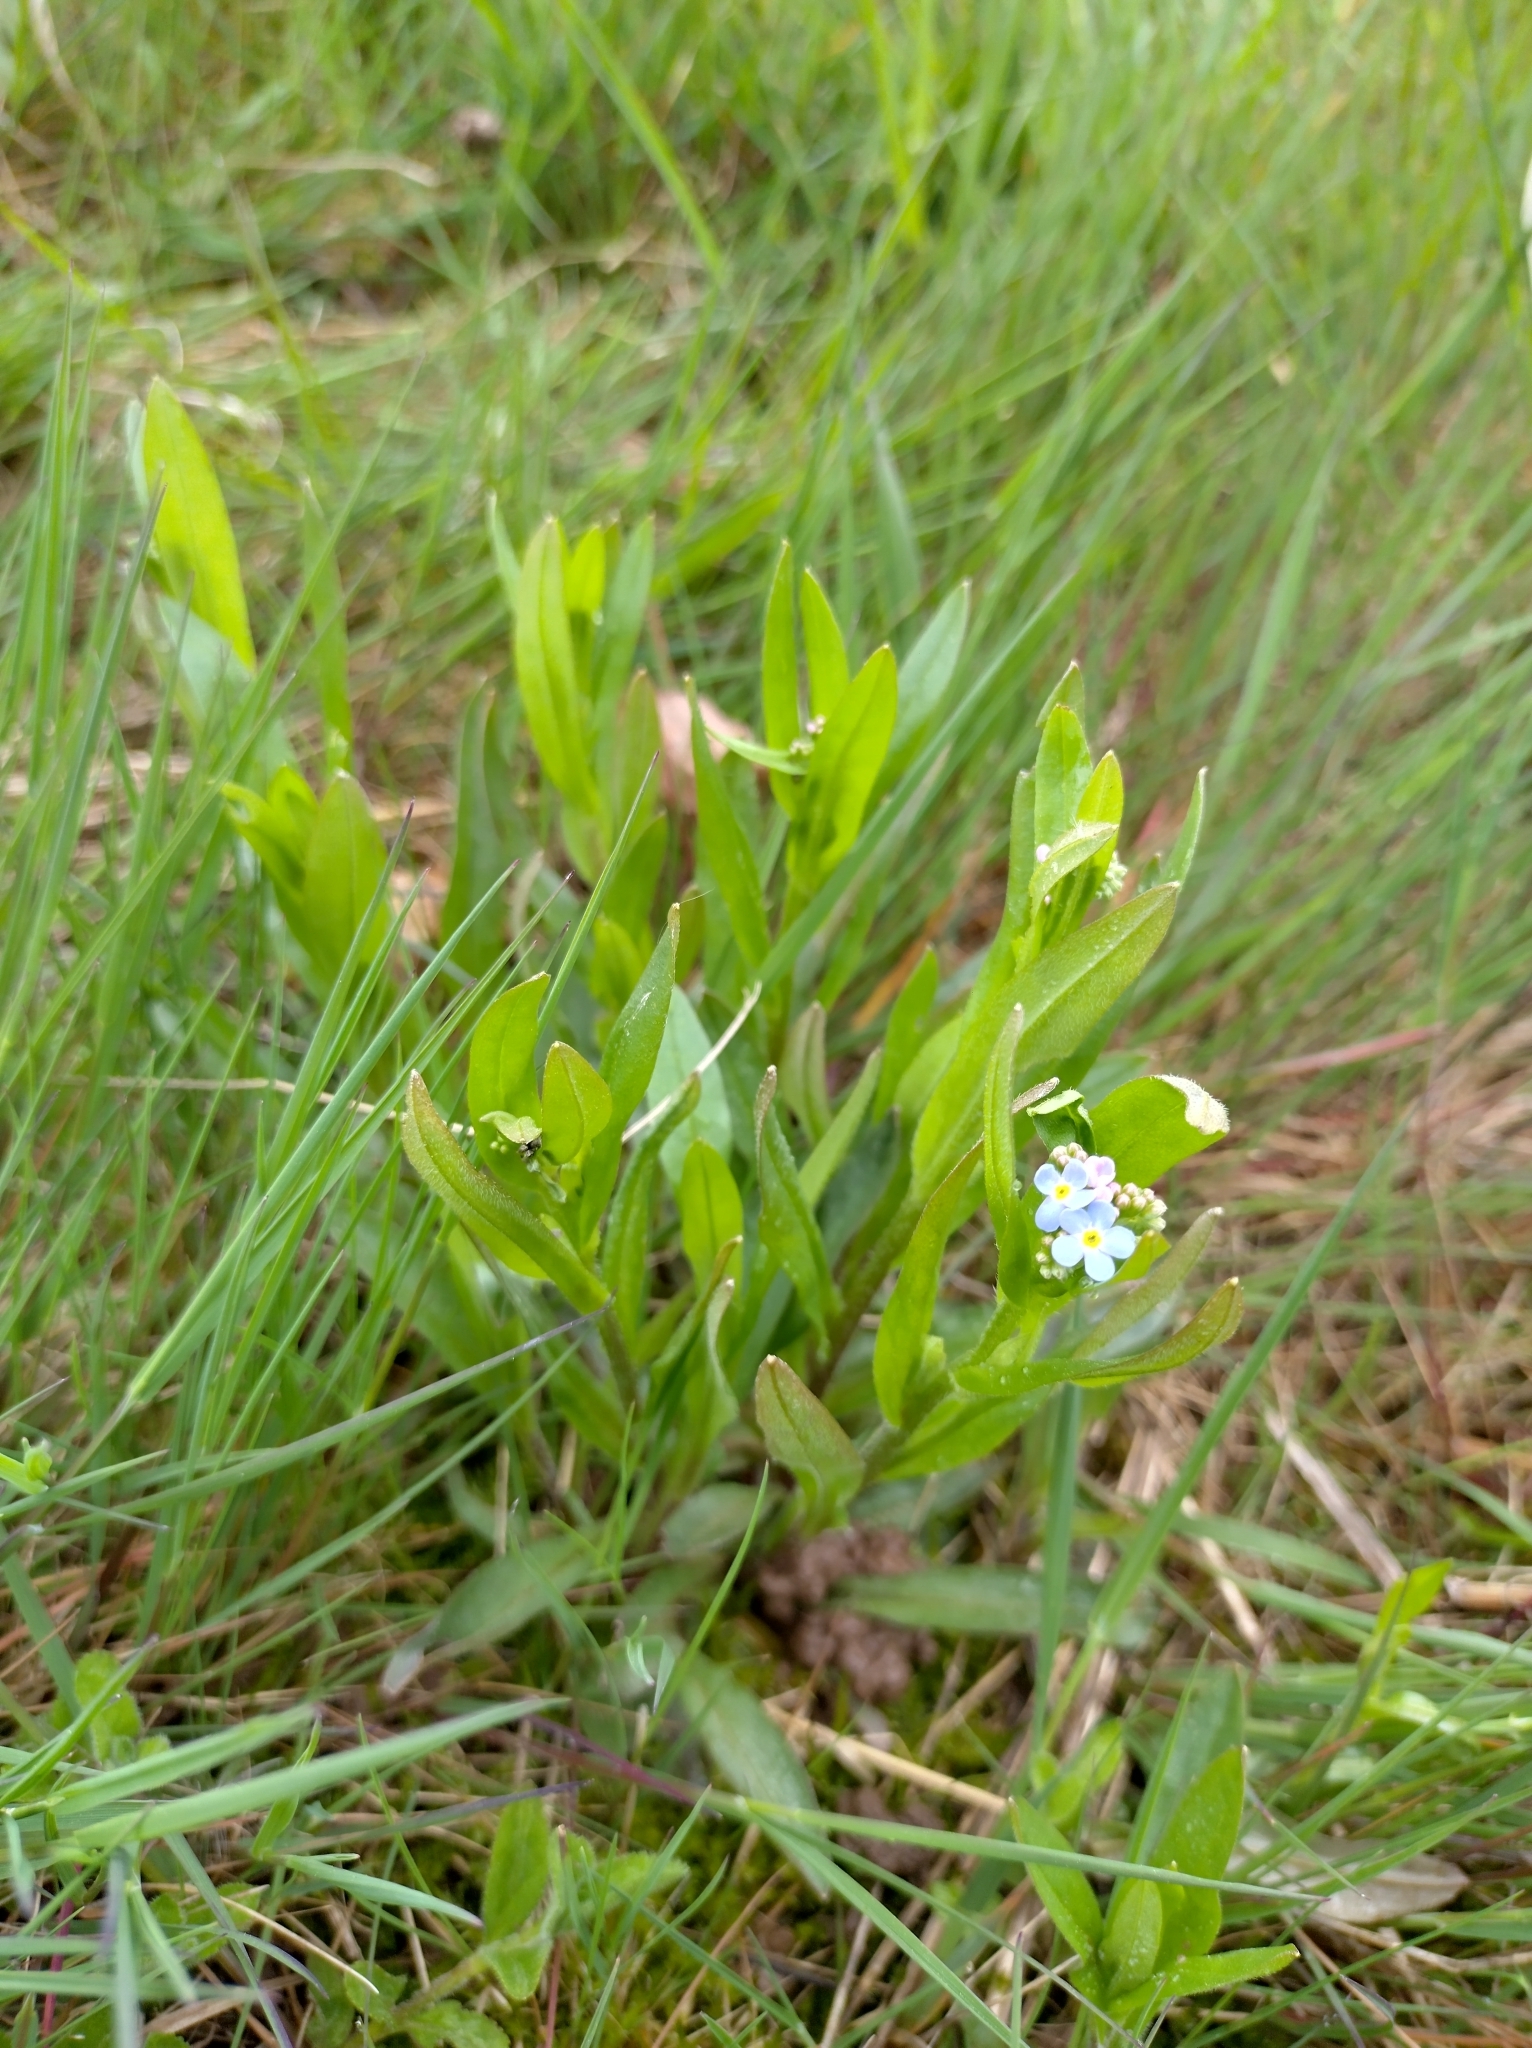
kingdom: Plantae
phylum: Tracheophyta
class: Magnoliopsida
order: Boraginales
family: Boraginaceae
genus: Myosotis
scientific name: Myosotis scorpioides
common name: Water forget-me-not
